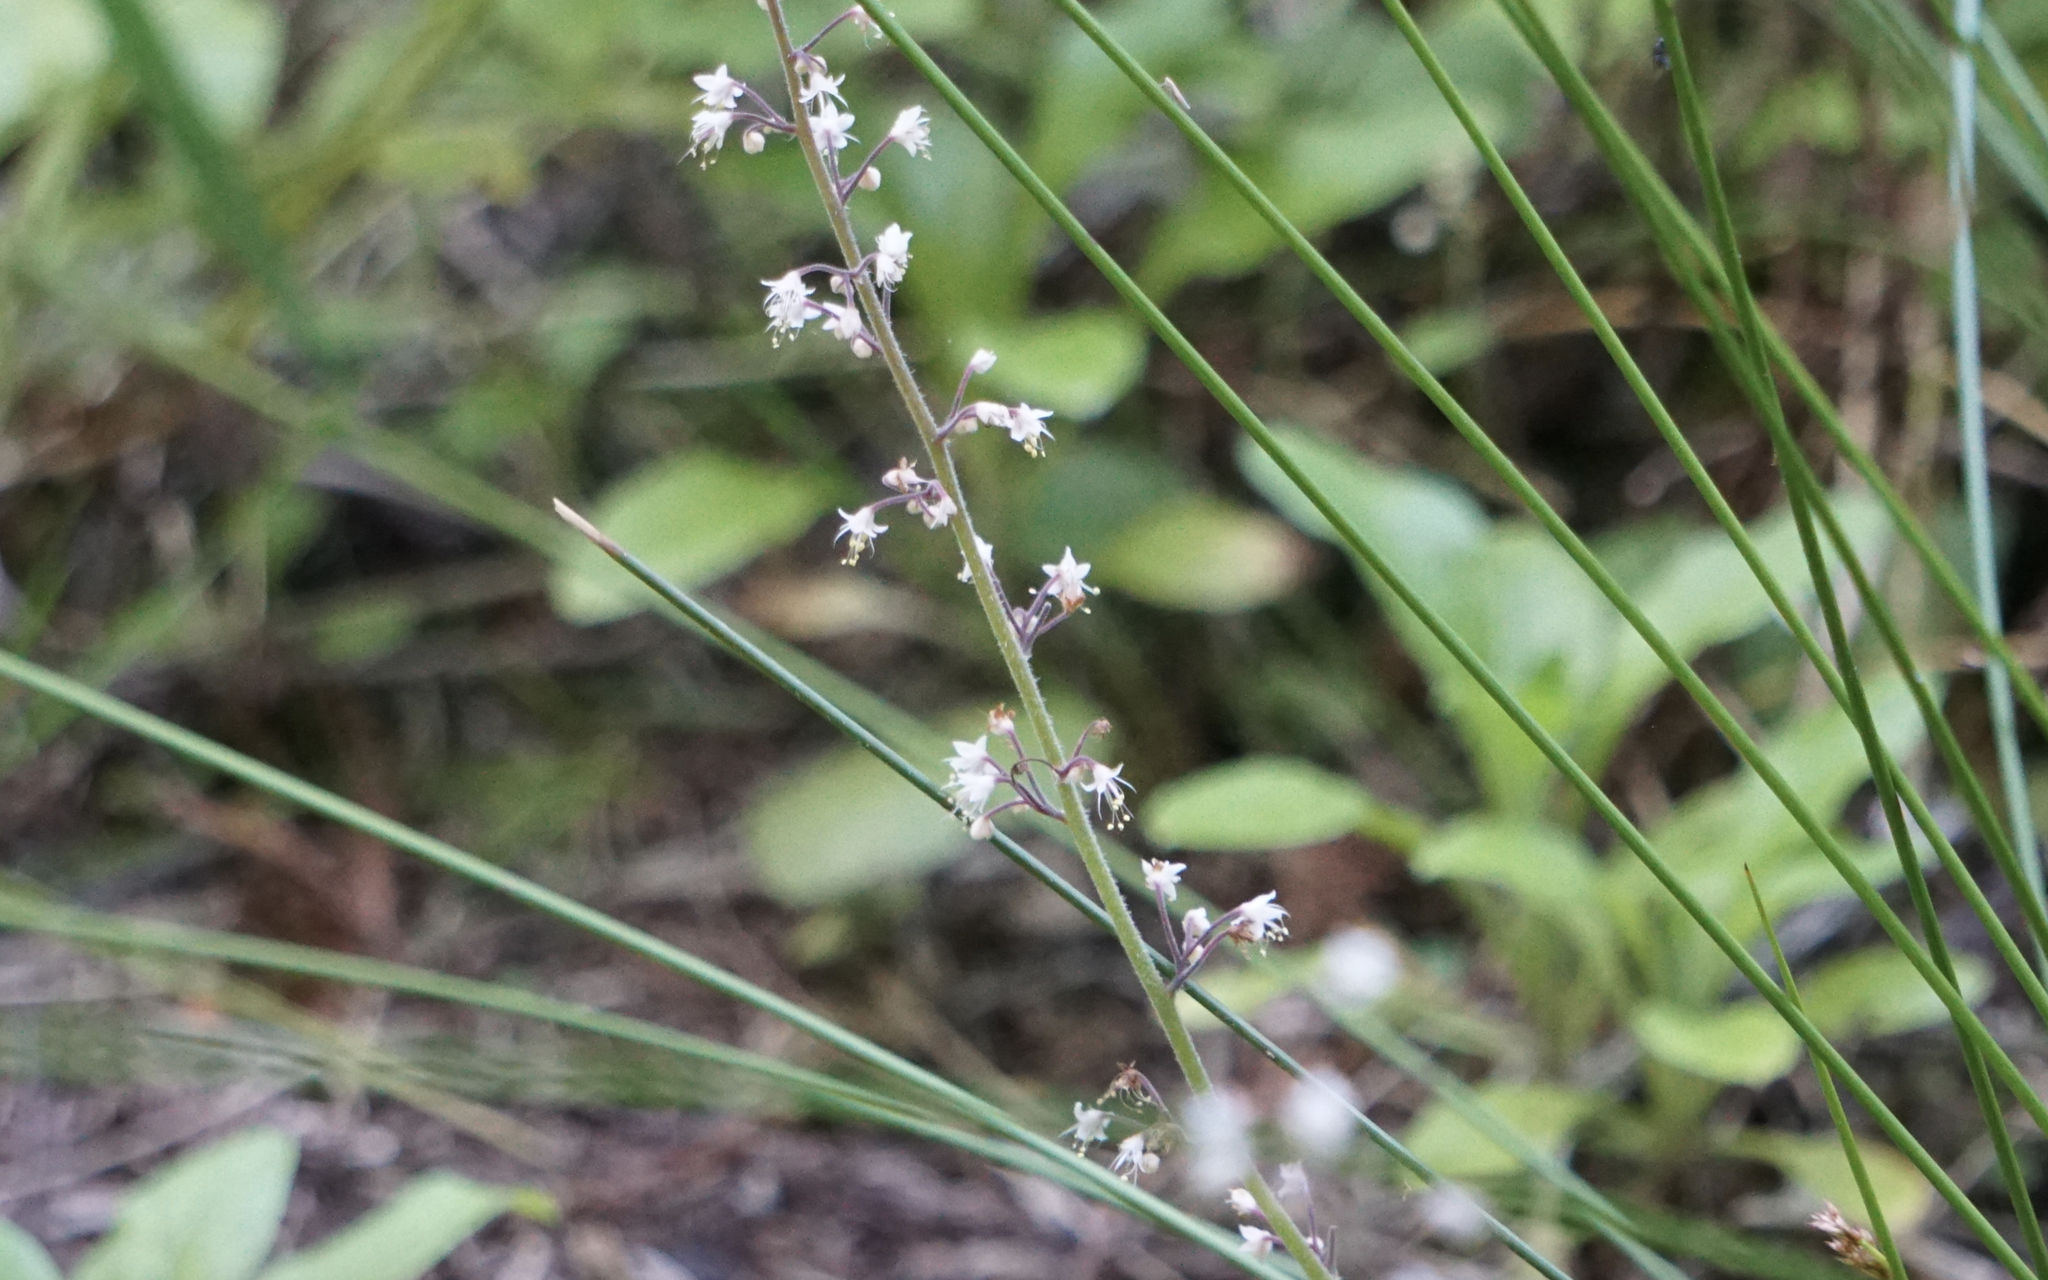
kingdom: Plantae
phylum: Tracheophyta
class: Magnoliopsida
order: Saxifragales
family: Saxifragaceae
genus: Tiarella
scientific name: Tiarella trifoliata
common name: Sugar-scoop
